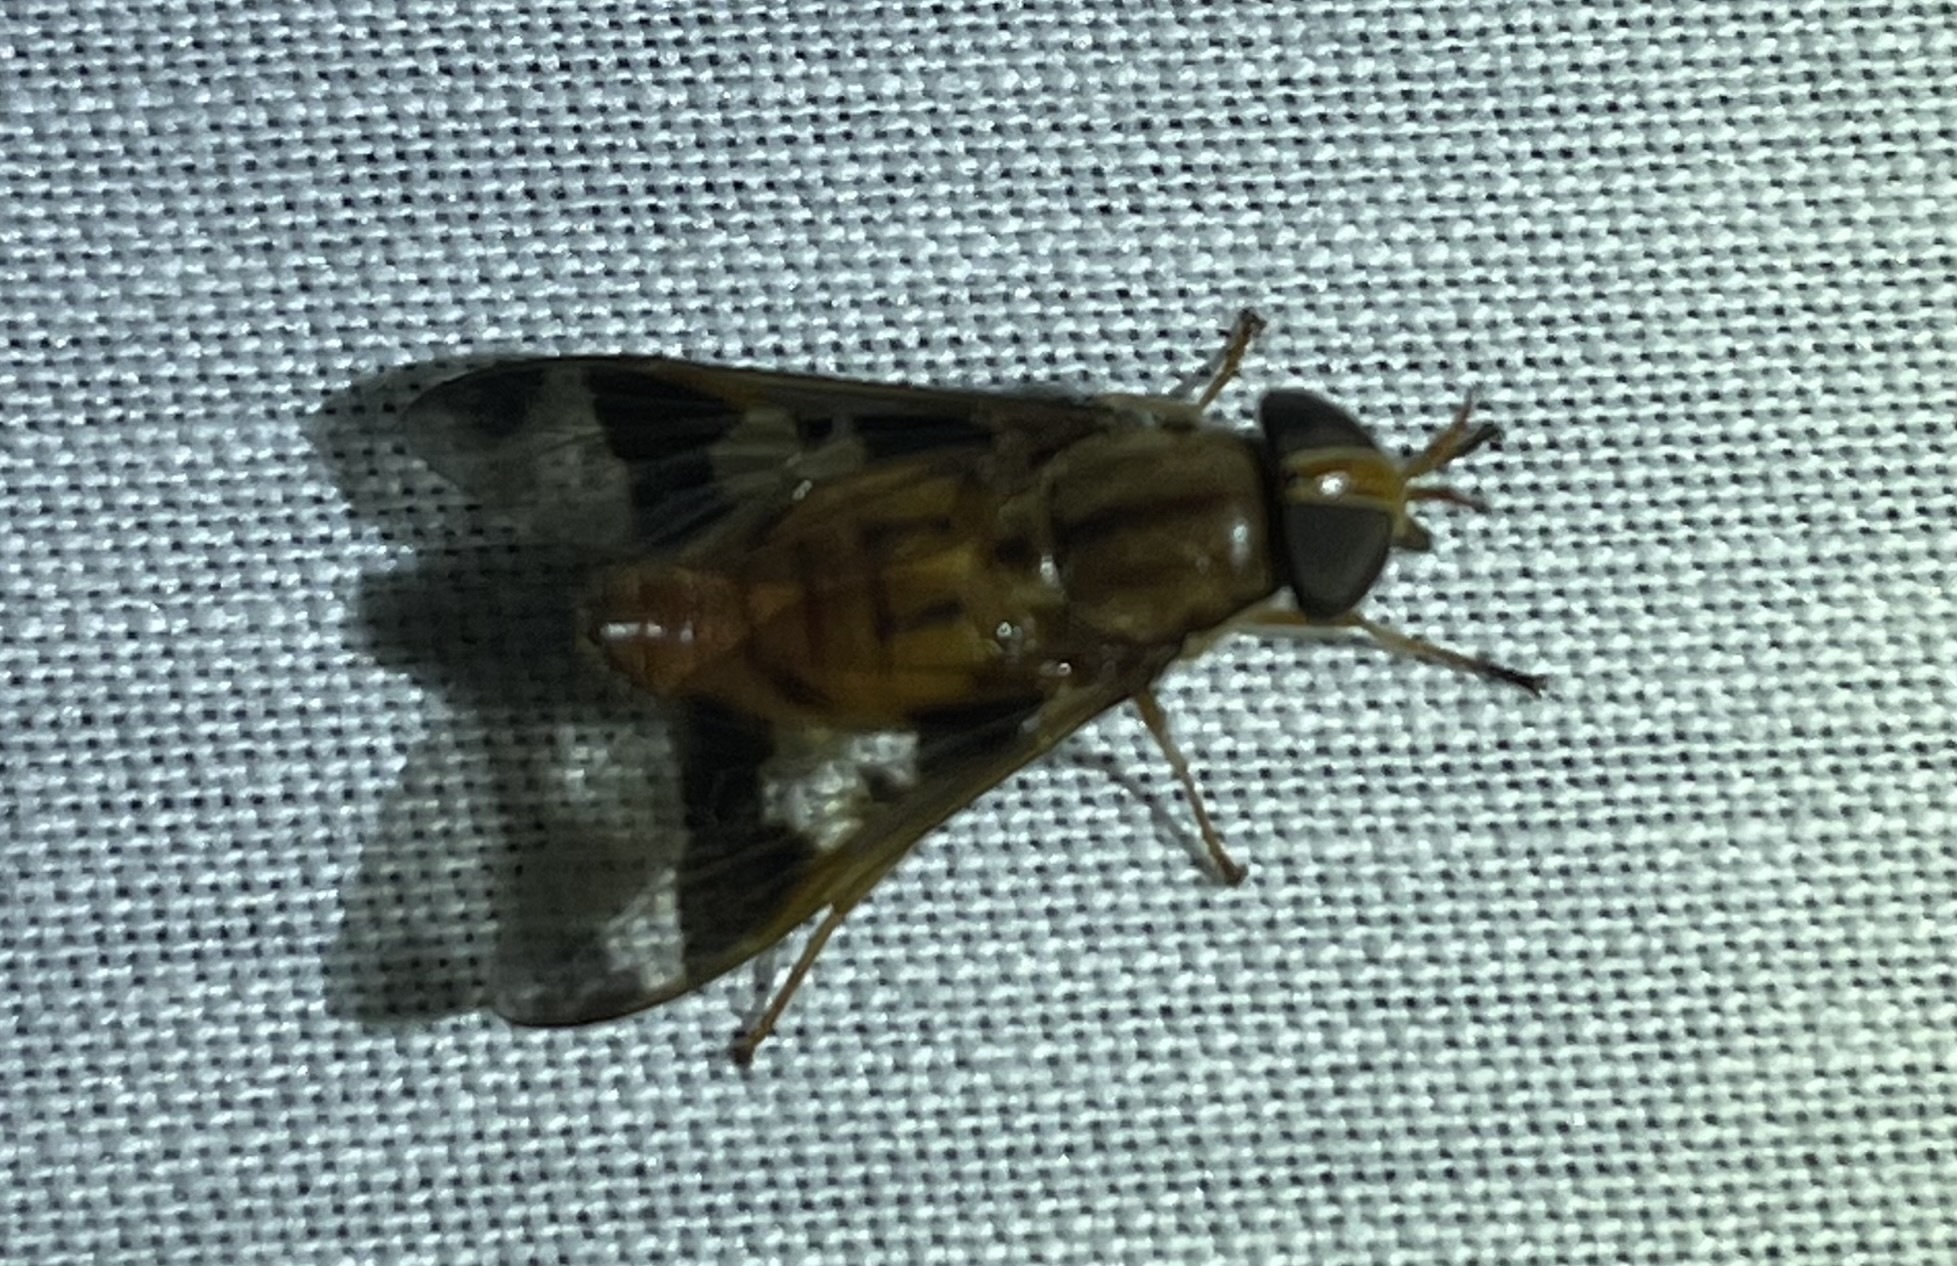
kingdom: Animalia
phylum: Arthropoda
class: Insecta
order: Diptera
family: Tabanidae
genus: Tabanocella
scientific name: Tabanocella denticornis
